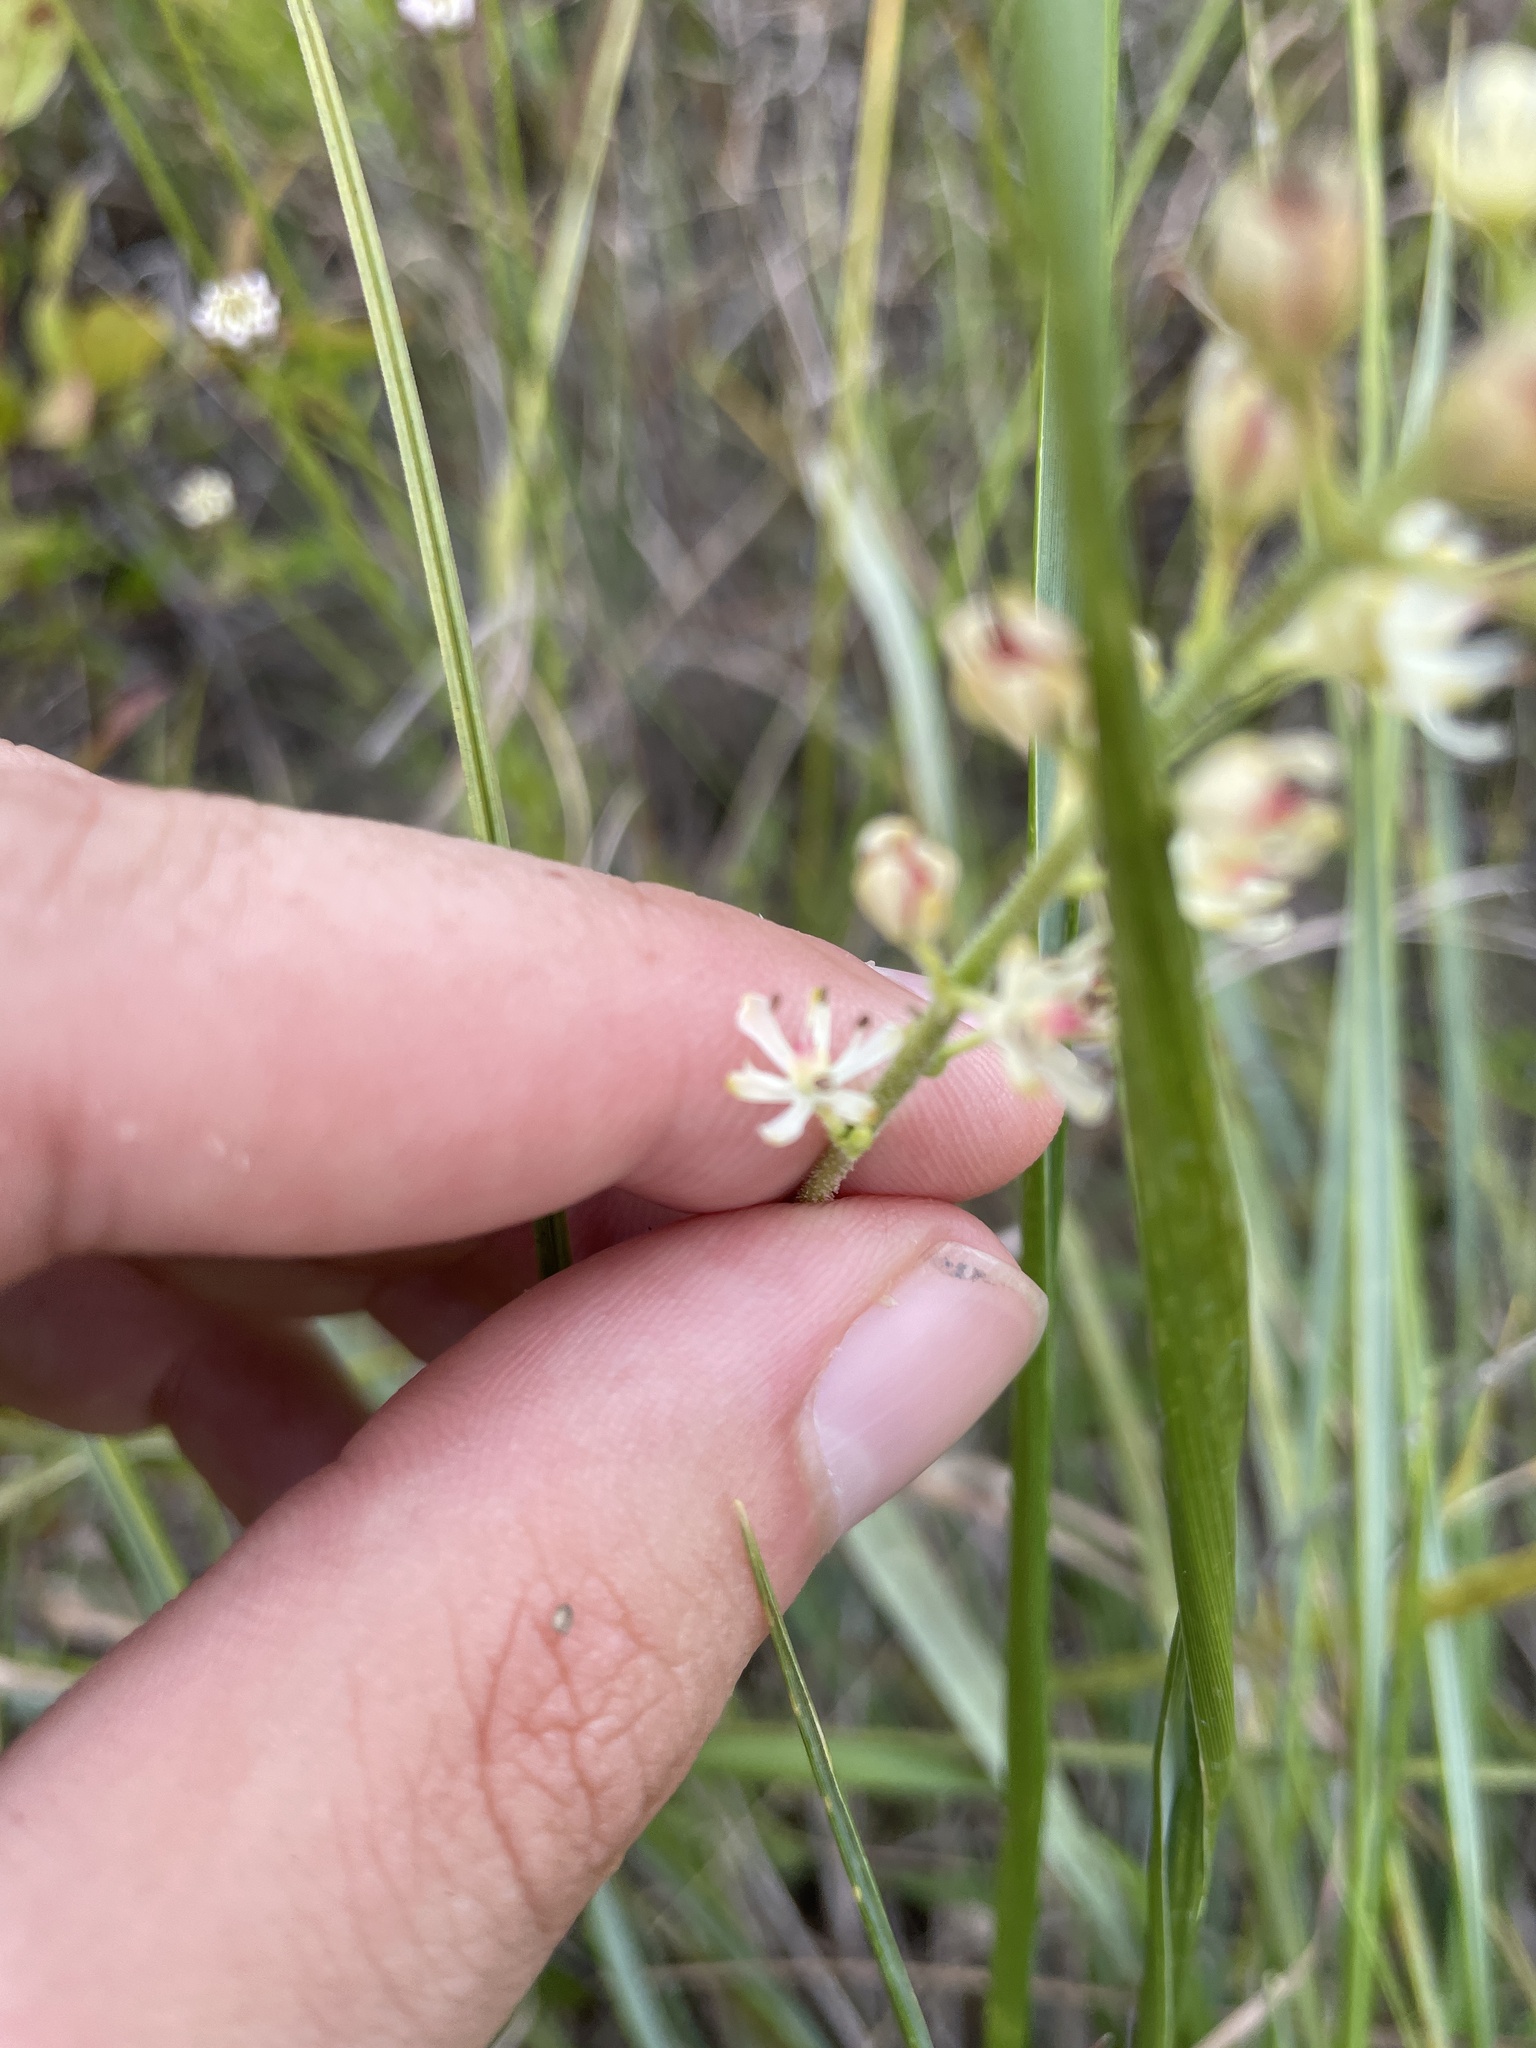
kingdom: Plantae
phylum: Tracheophyta
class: Liliopsida
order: Alismatales
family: Tofieldiaceae
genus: Triantha
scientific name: Triantha racemosa
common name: Coastal false asphodel
